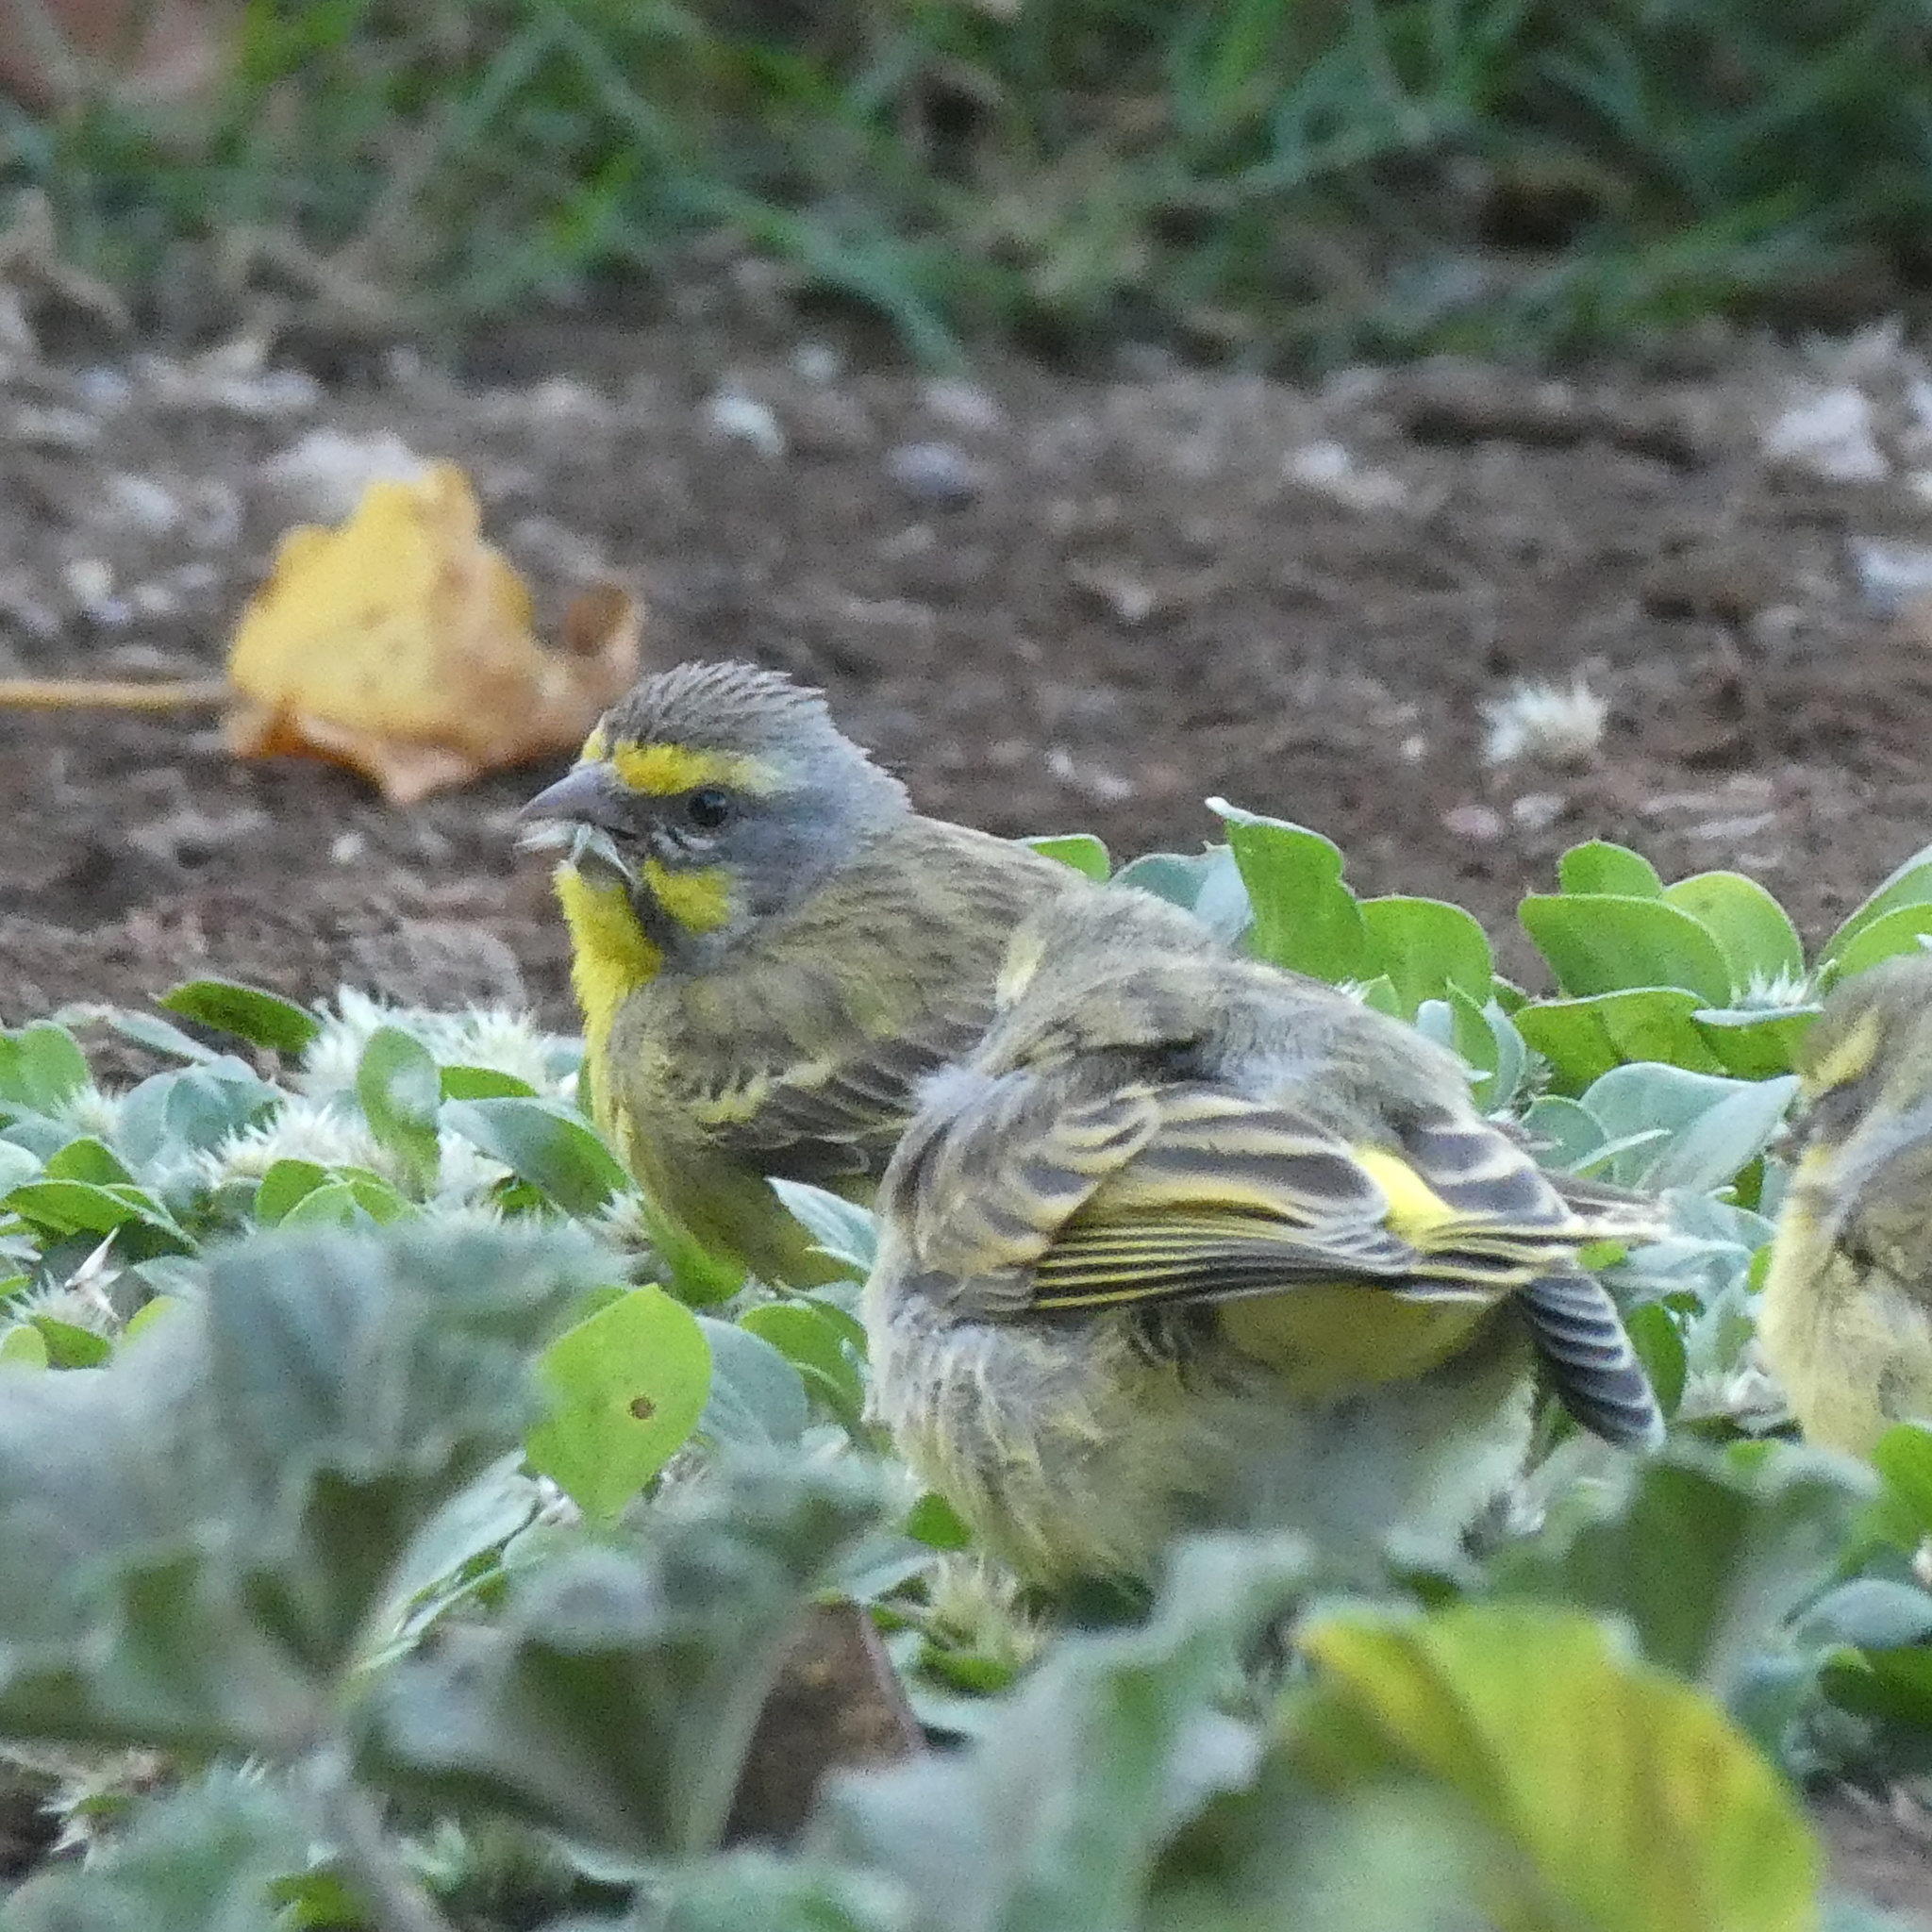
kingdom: Animalia
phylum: Chordata
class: Aves
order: Passeriformes
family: Fringillidae
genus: Crithagra
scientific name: Crithagra mozambica
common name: Yellow-fronted canary
